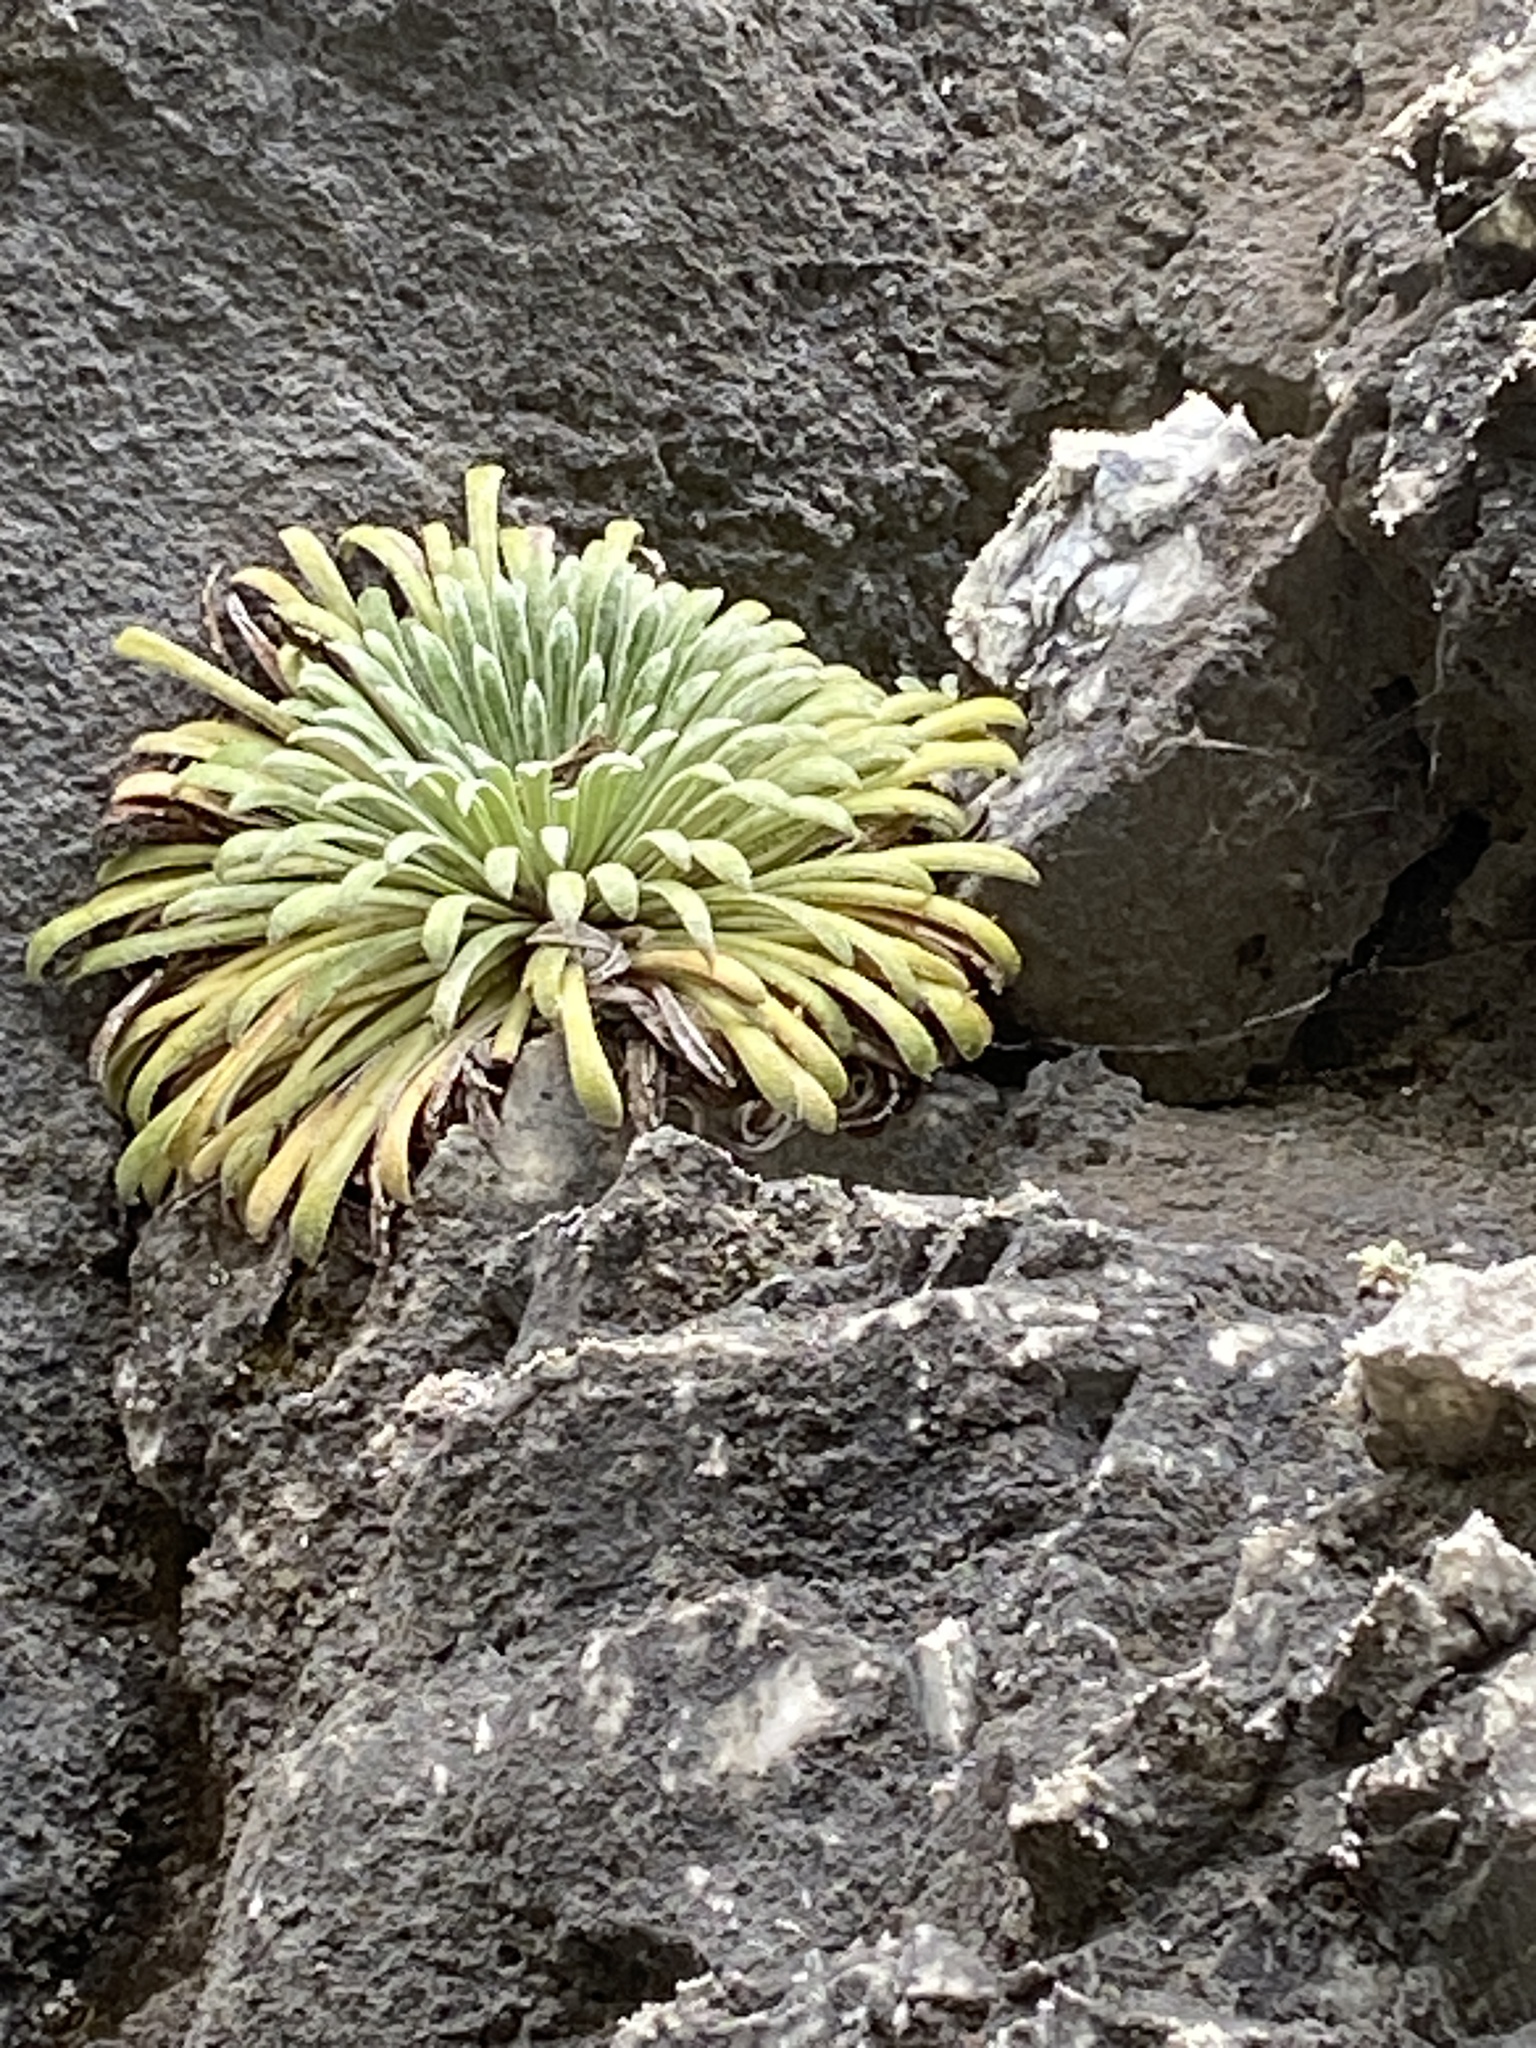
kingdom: Plantae
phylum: Tracheophyta
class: Magnoliopsida
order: Saxifragales
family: Saxifragaceae
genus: Saxifraga
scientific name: Saxifraga longifolia
